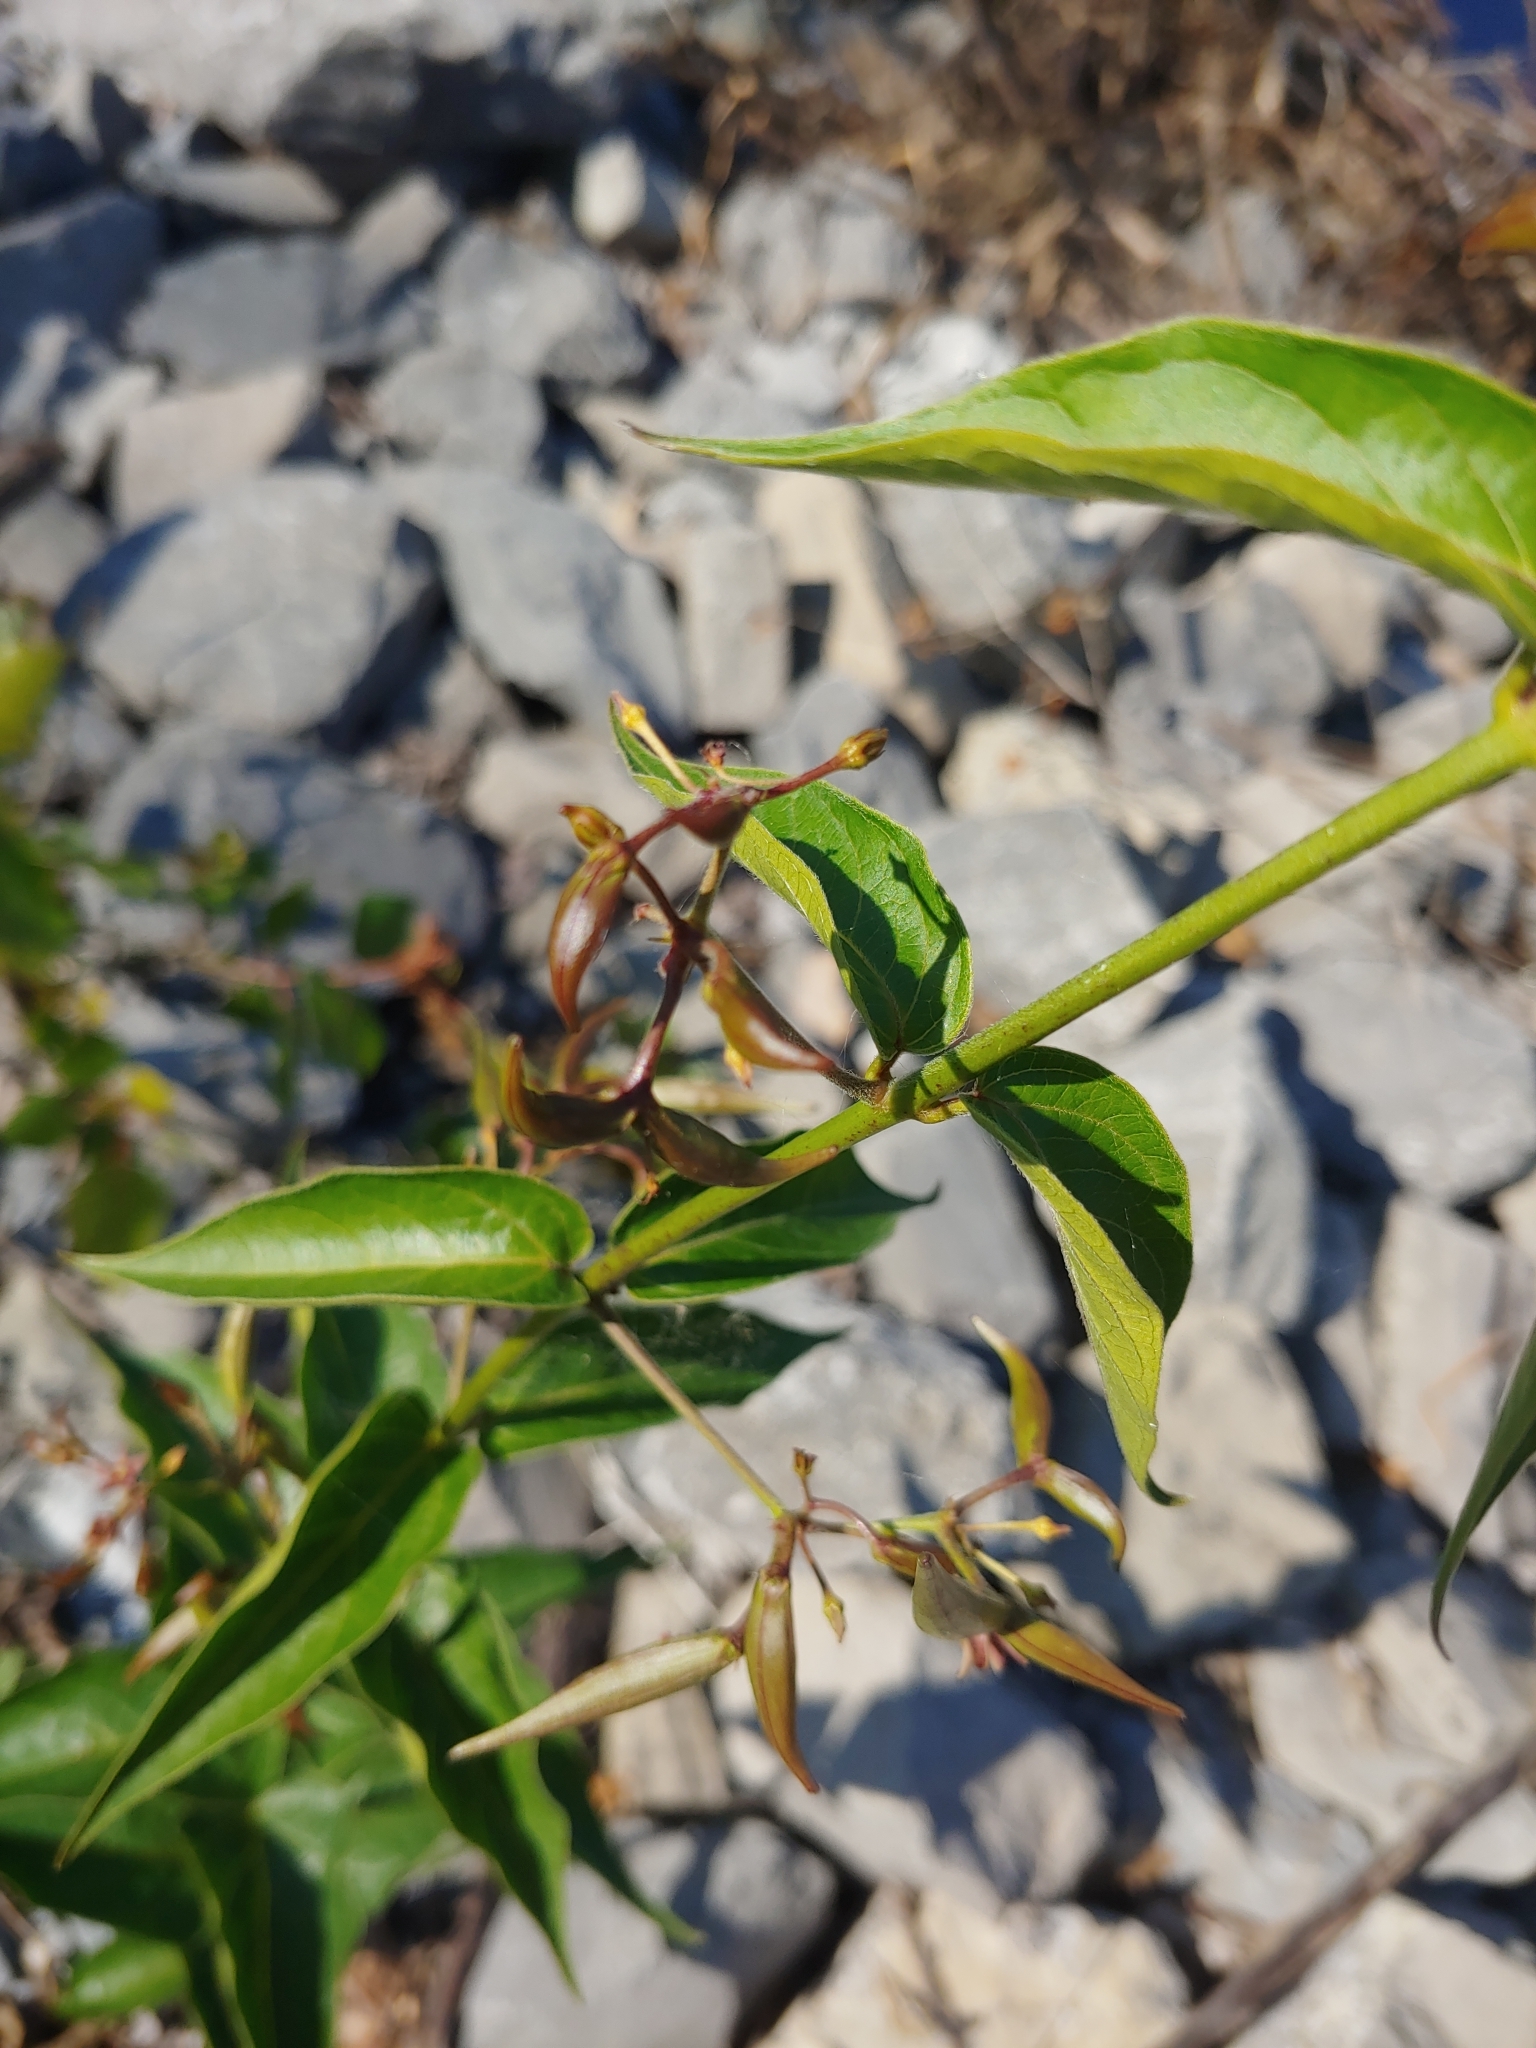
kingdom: Plantae
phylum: Tracheophyta
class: Magnoliopsida
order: Gentianales
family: Apocynaceae
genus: Vincetoxicum
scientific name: Vincetoxicum rossicum
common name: Dog-strangling vine
